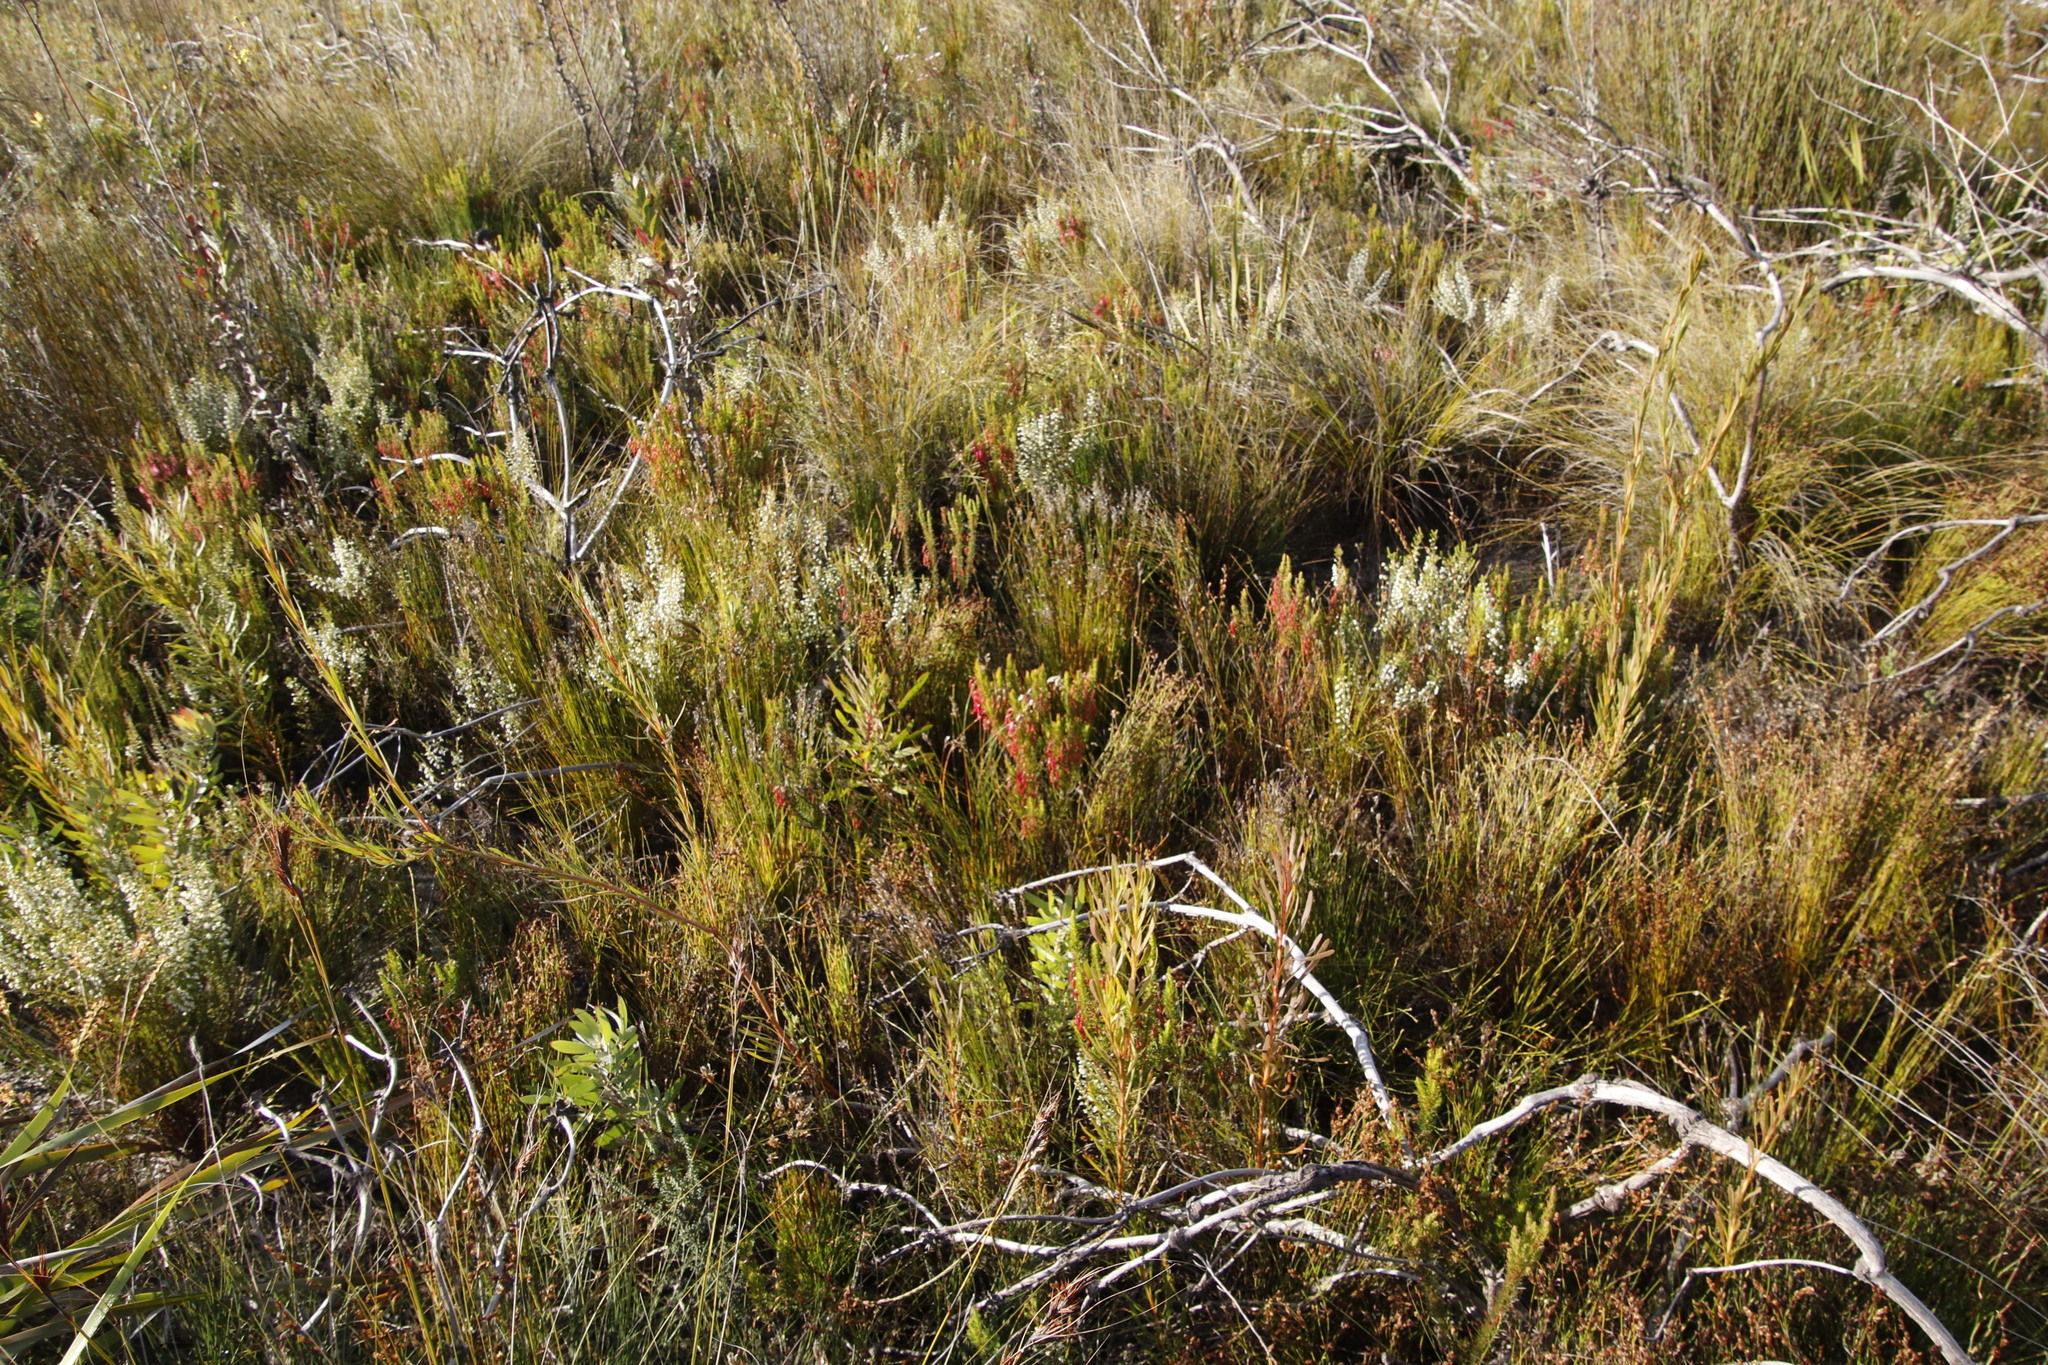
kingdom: Plantae
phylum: Tracheophyta
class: Magnoliopsida
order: Ericales
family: Ericaceae
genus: Erica
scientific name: Erica plukenetii
